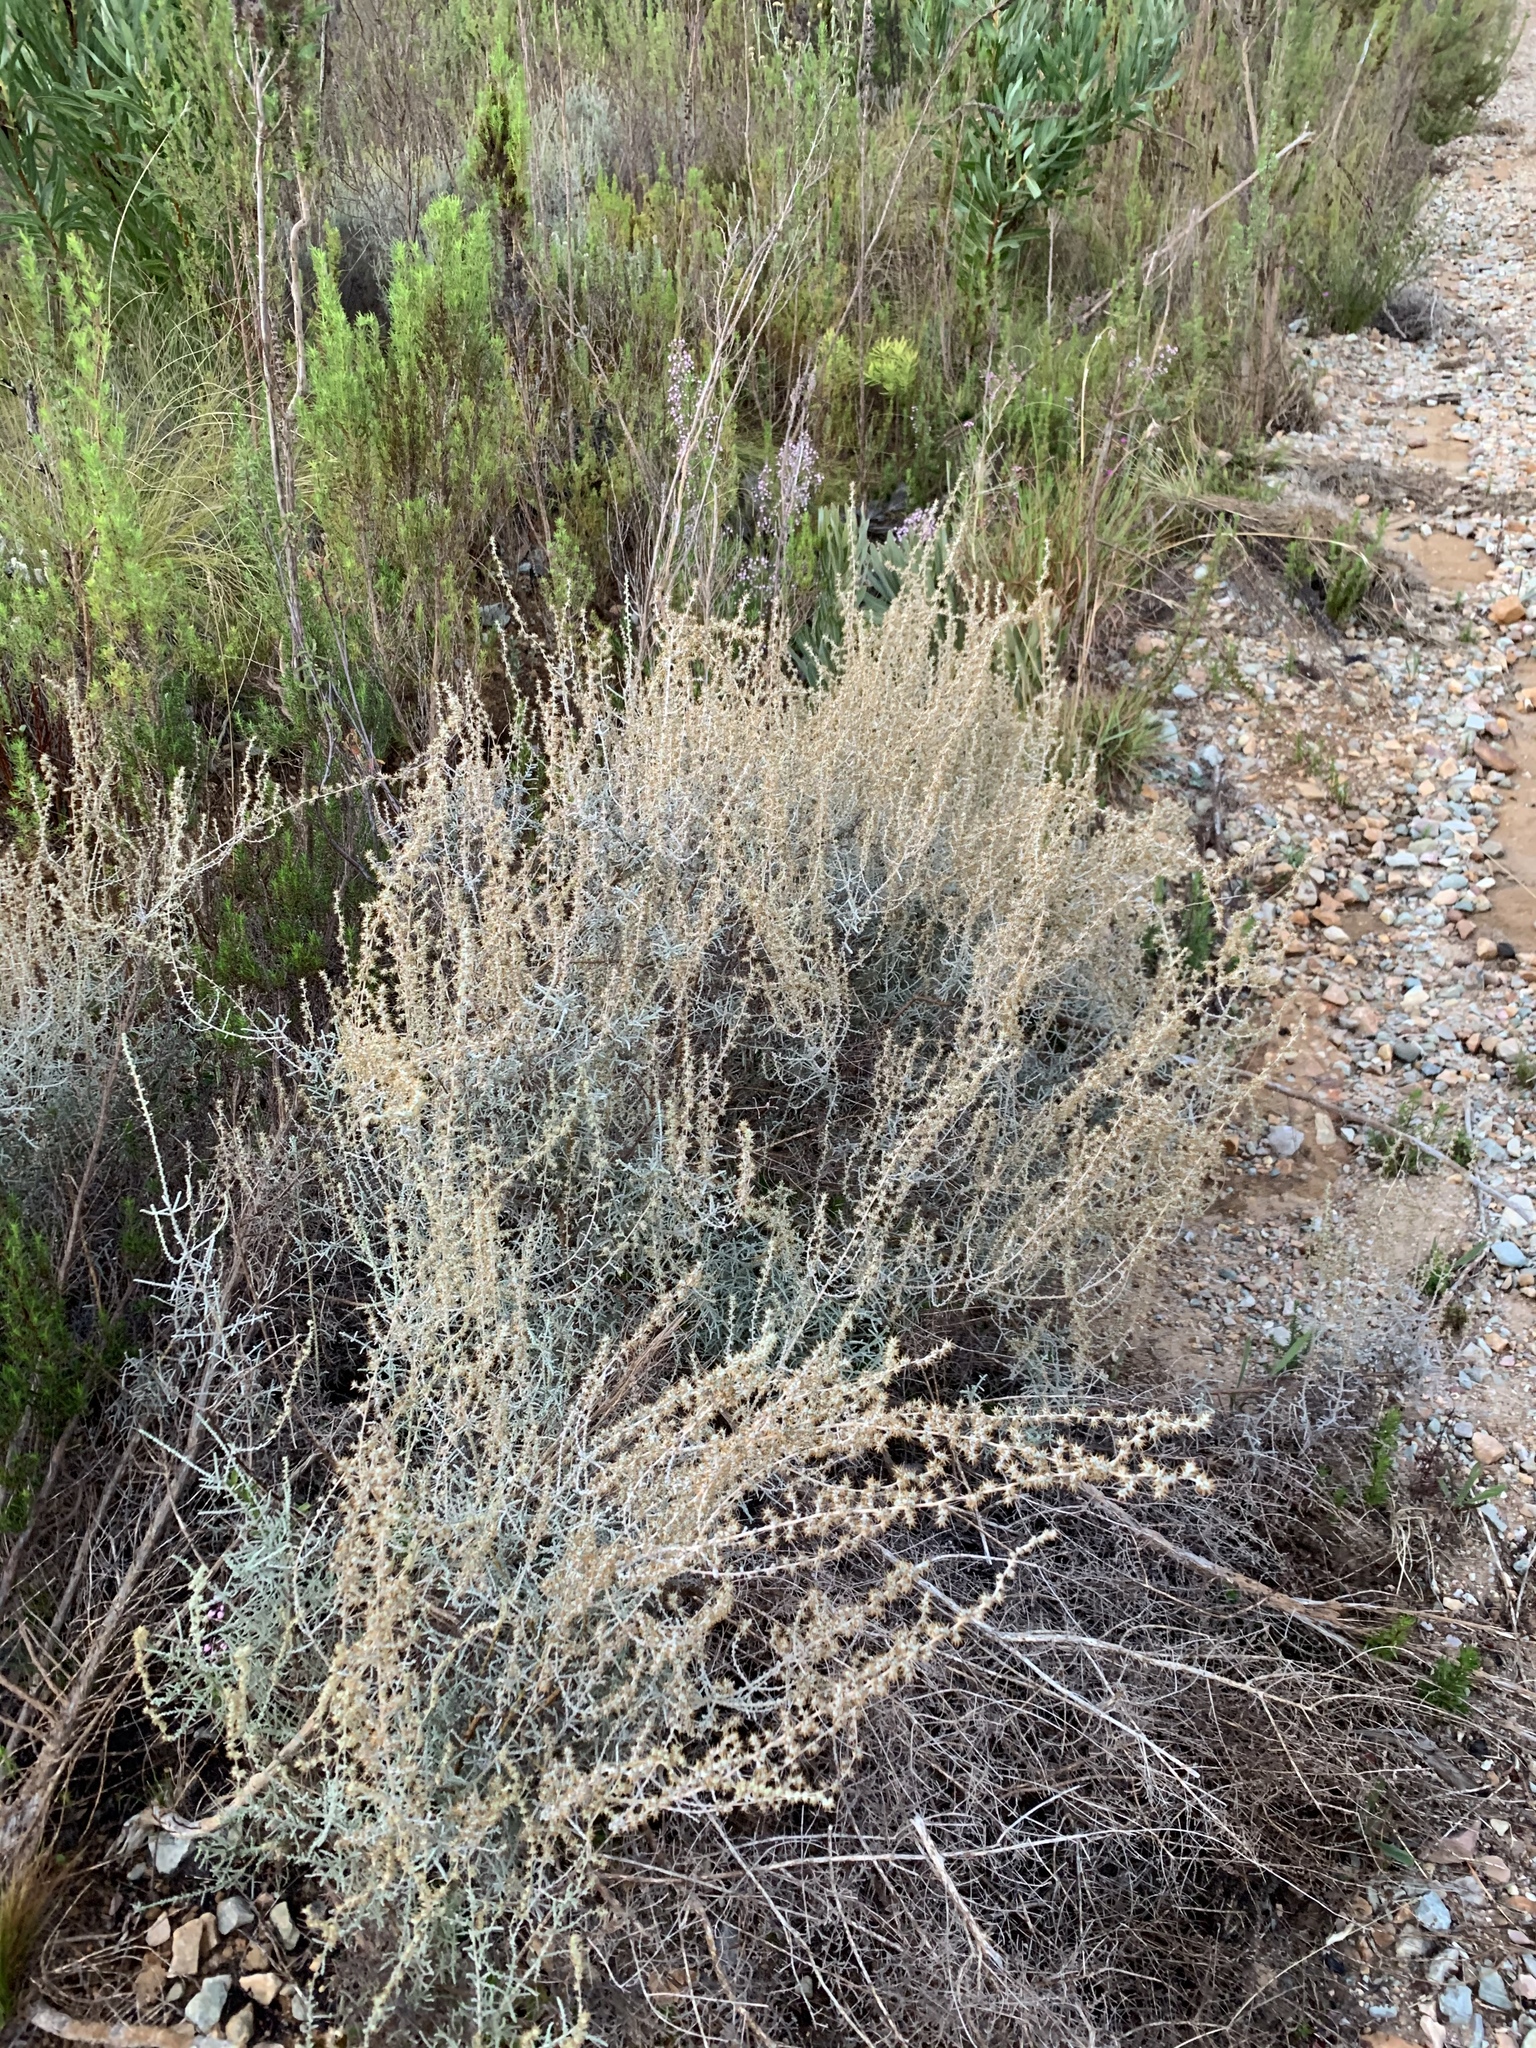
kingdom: Plantae
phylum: Tracheophyta
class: Magnoliopsida
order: Asterales
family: Asteraceae
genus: Seriphium
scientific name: Seriphium plumosum
